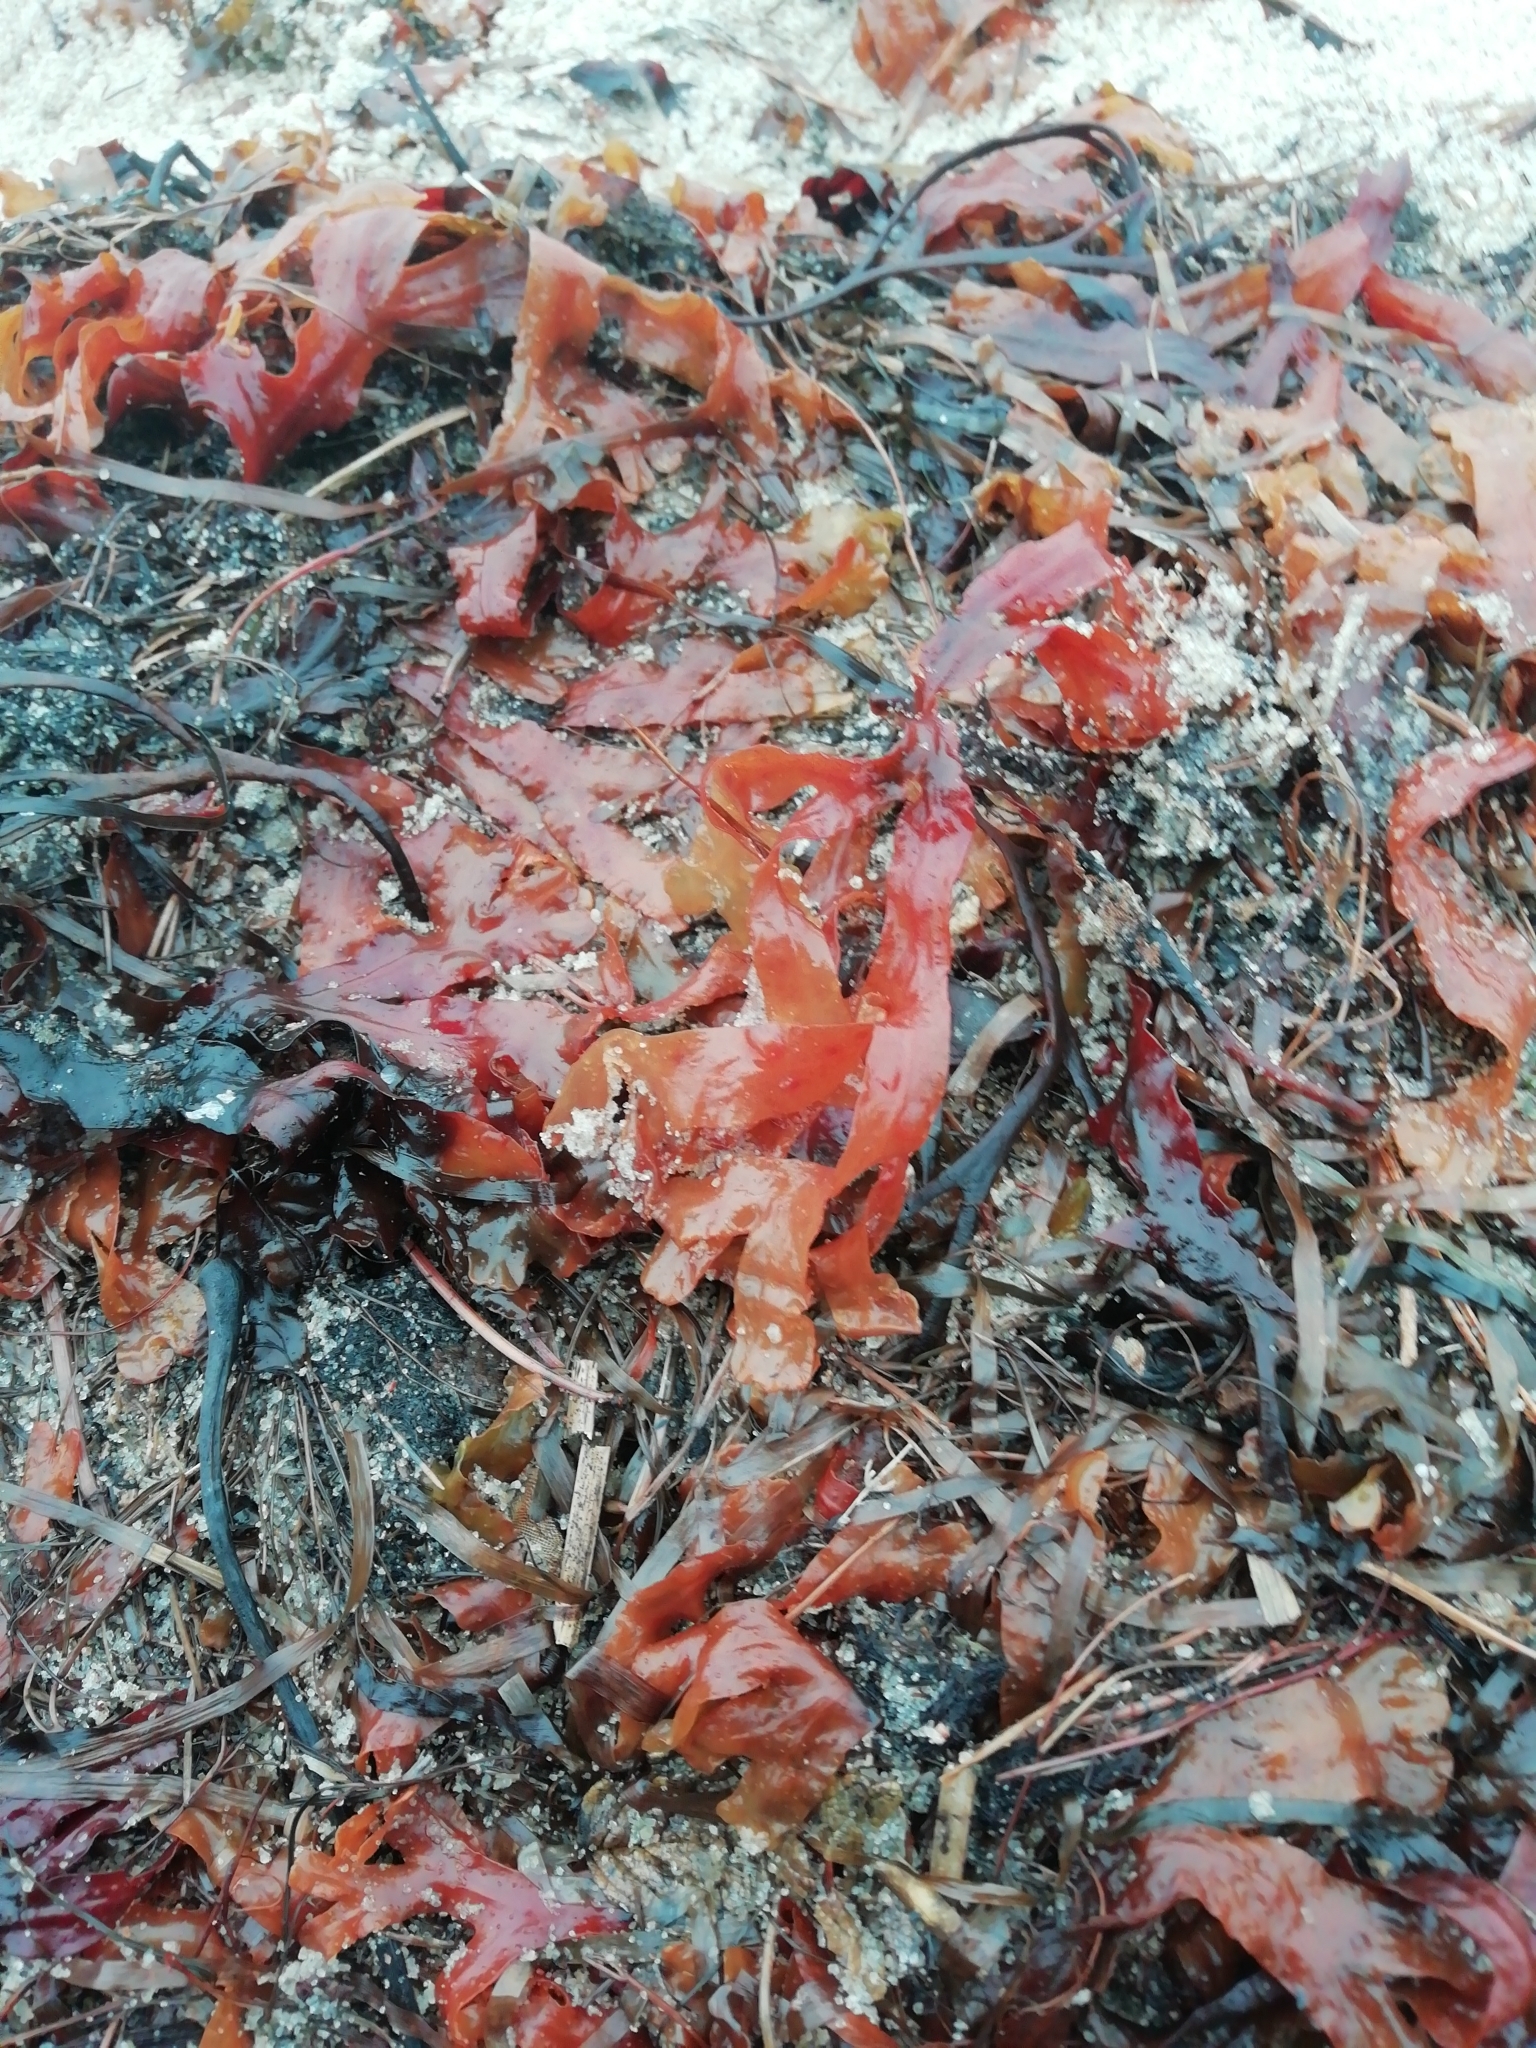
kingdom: Chromista
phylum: Ochrophyta
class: Phaeophyceae
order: Fucales
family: Fucaceae
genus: Fucus
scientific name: Fucus vesiculosus
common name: Bladder wrack
